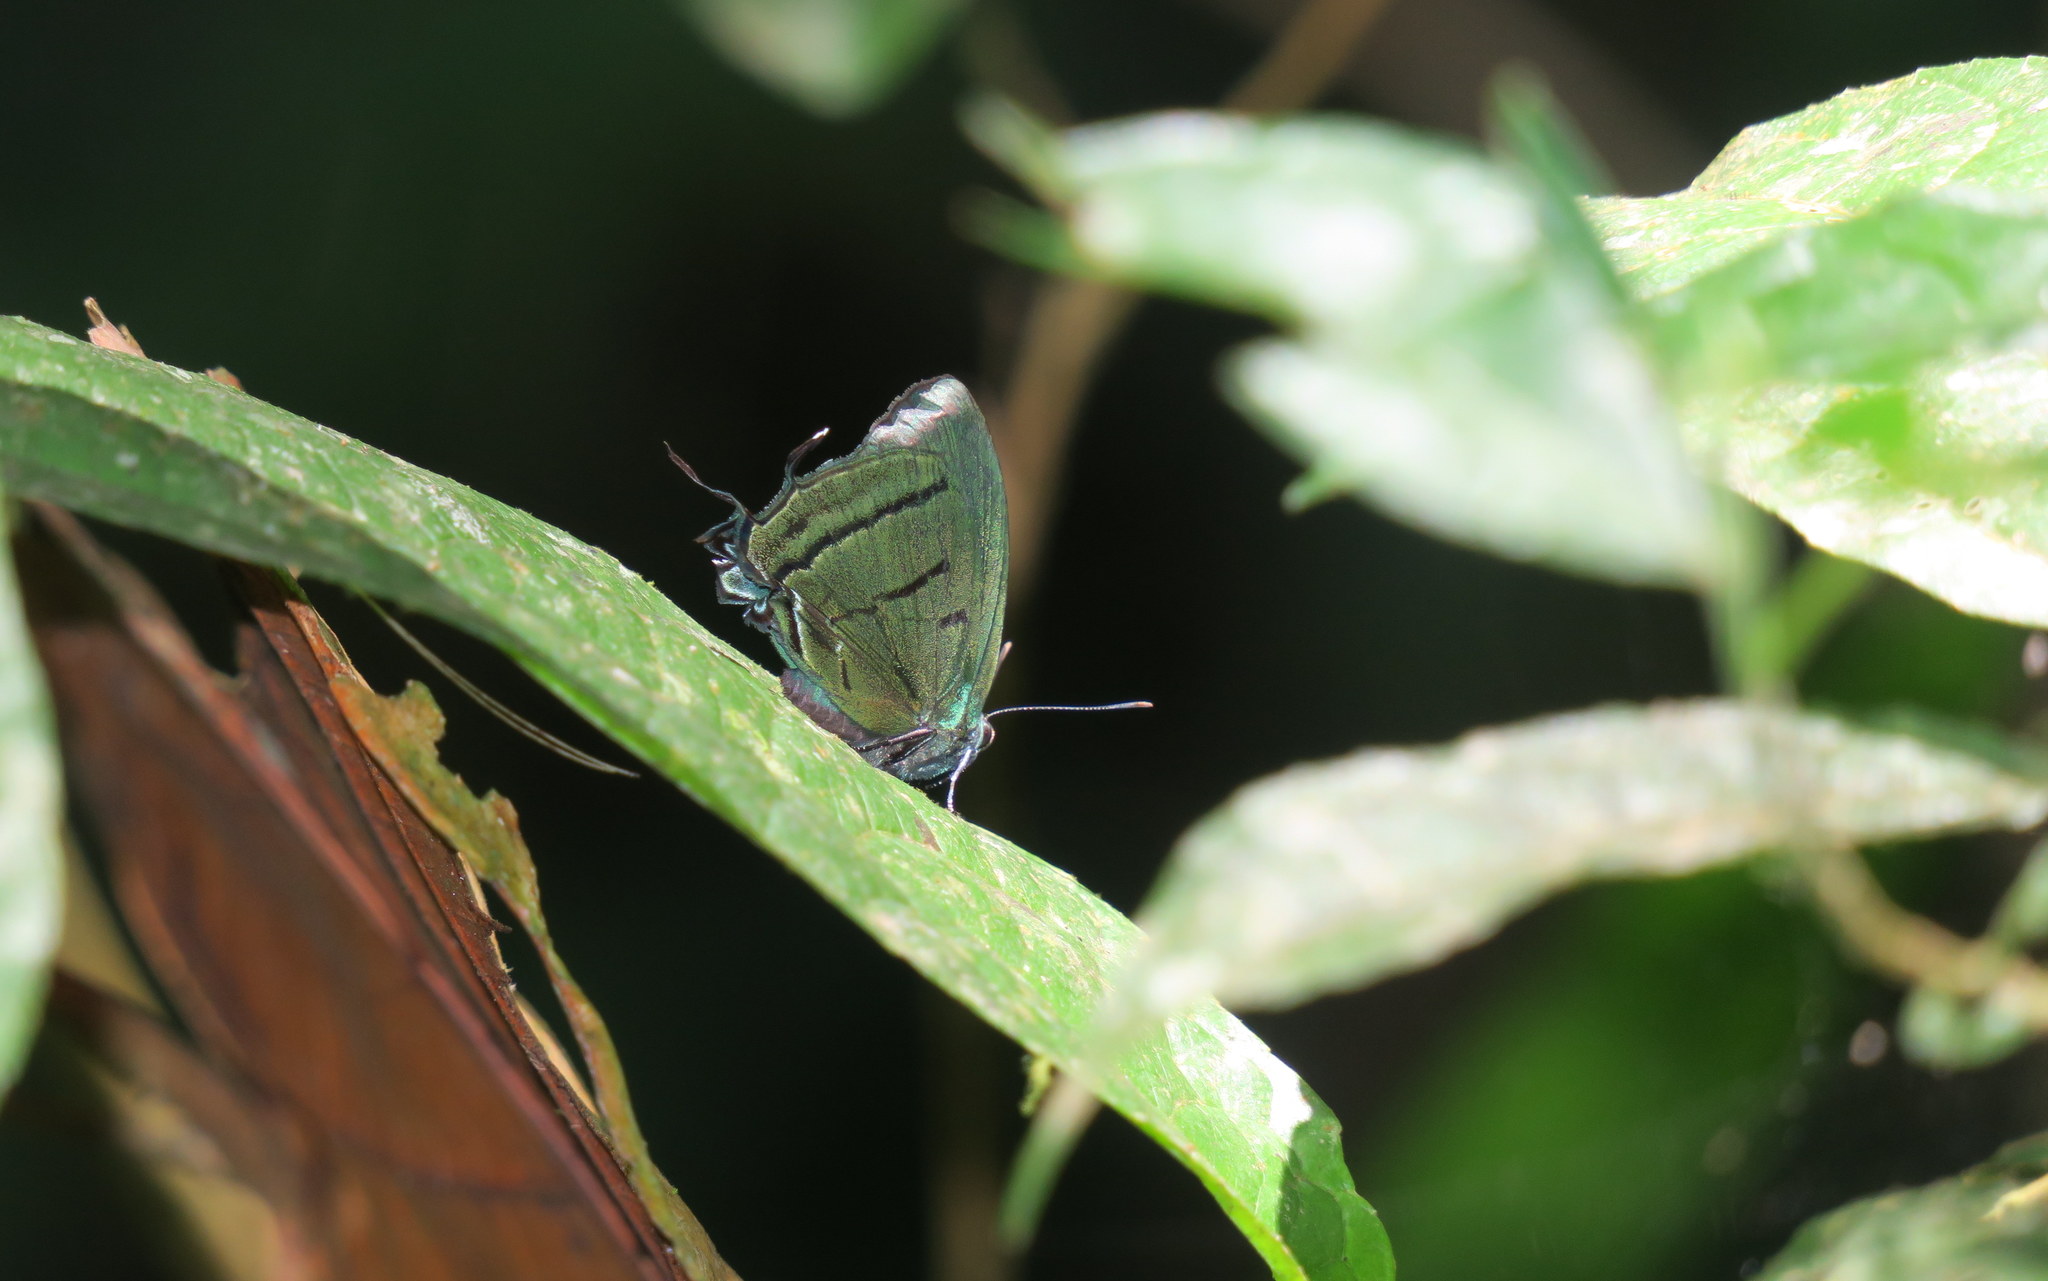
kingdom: Animalia
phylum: Arthropoda
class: Insecta
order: Lepidoptera
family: Lycaenidae
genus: Theritas
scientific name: Theritas mavors
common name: Deep-green hairstreak
